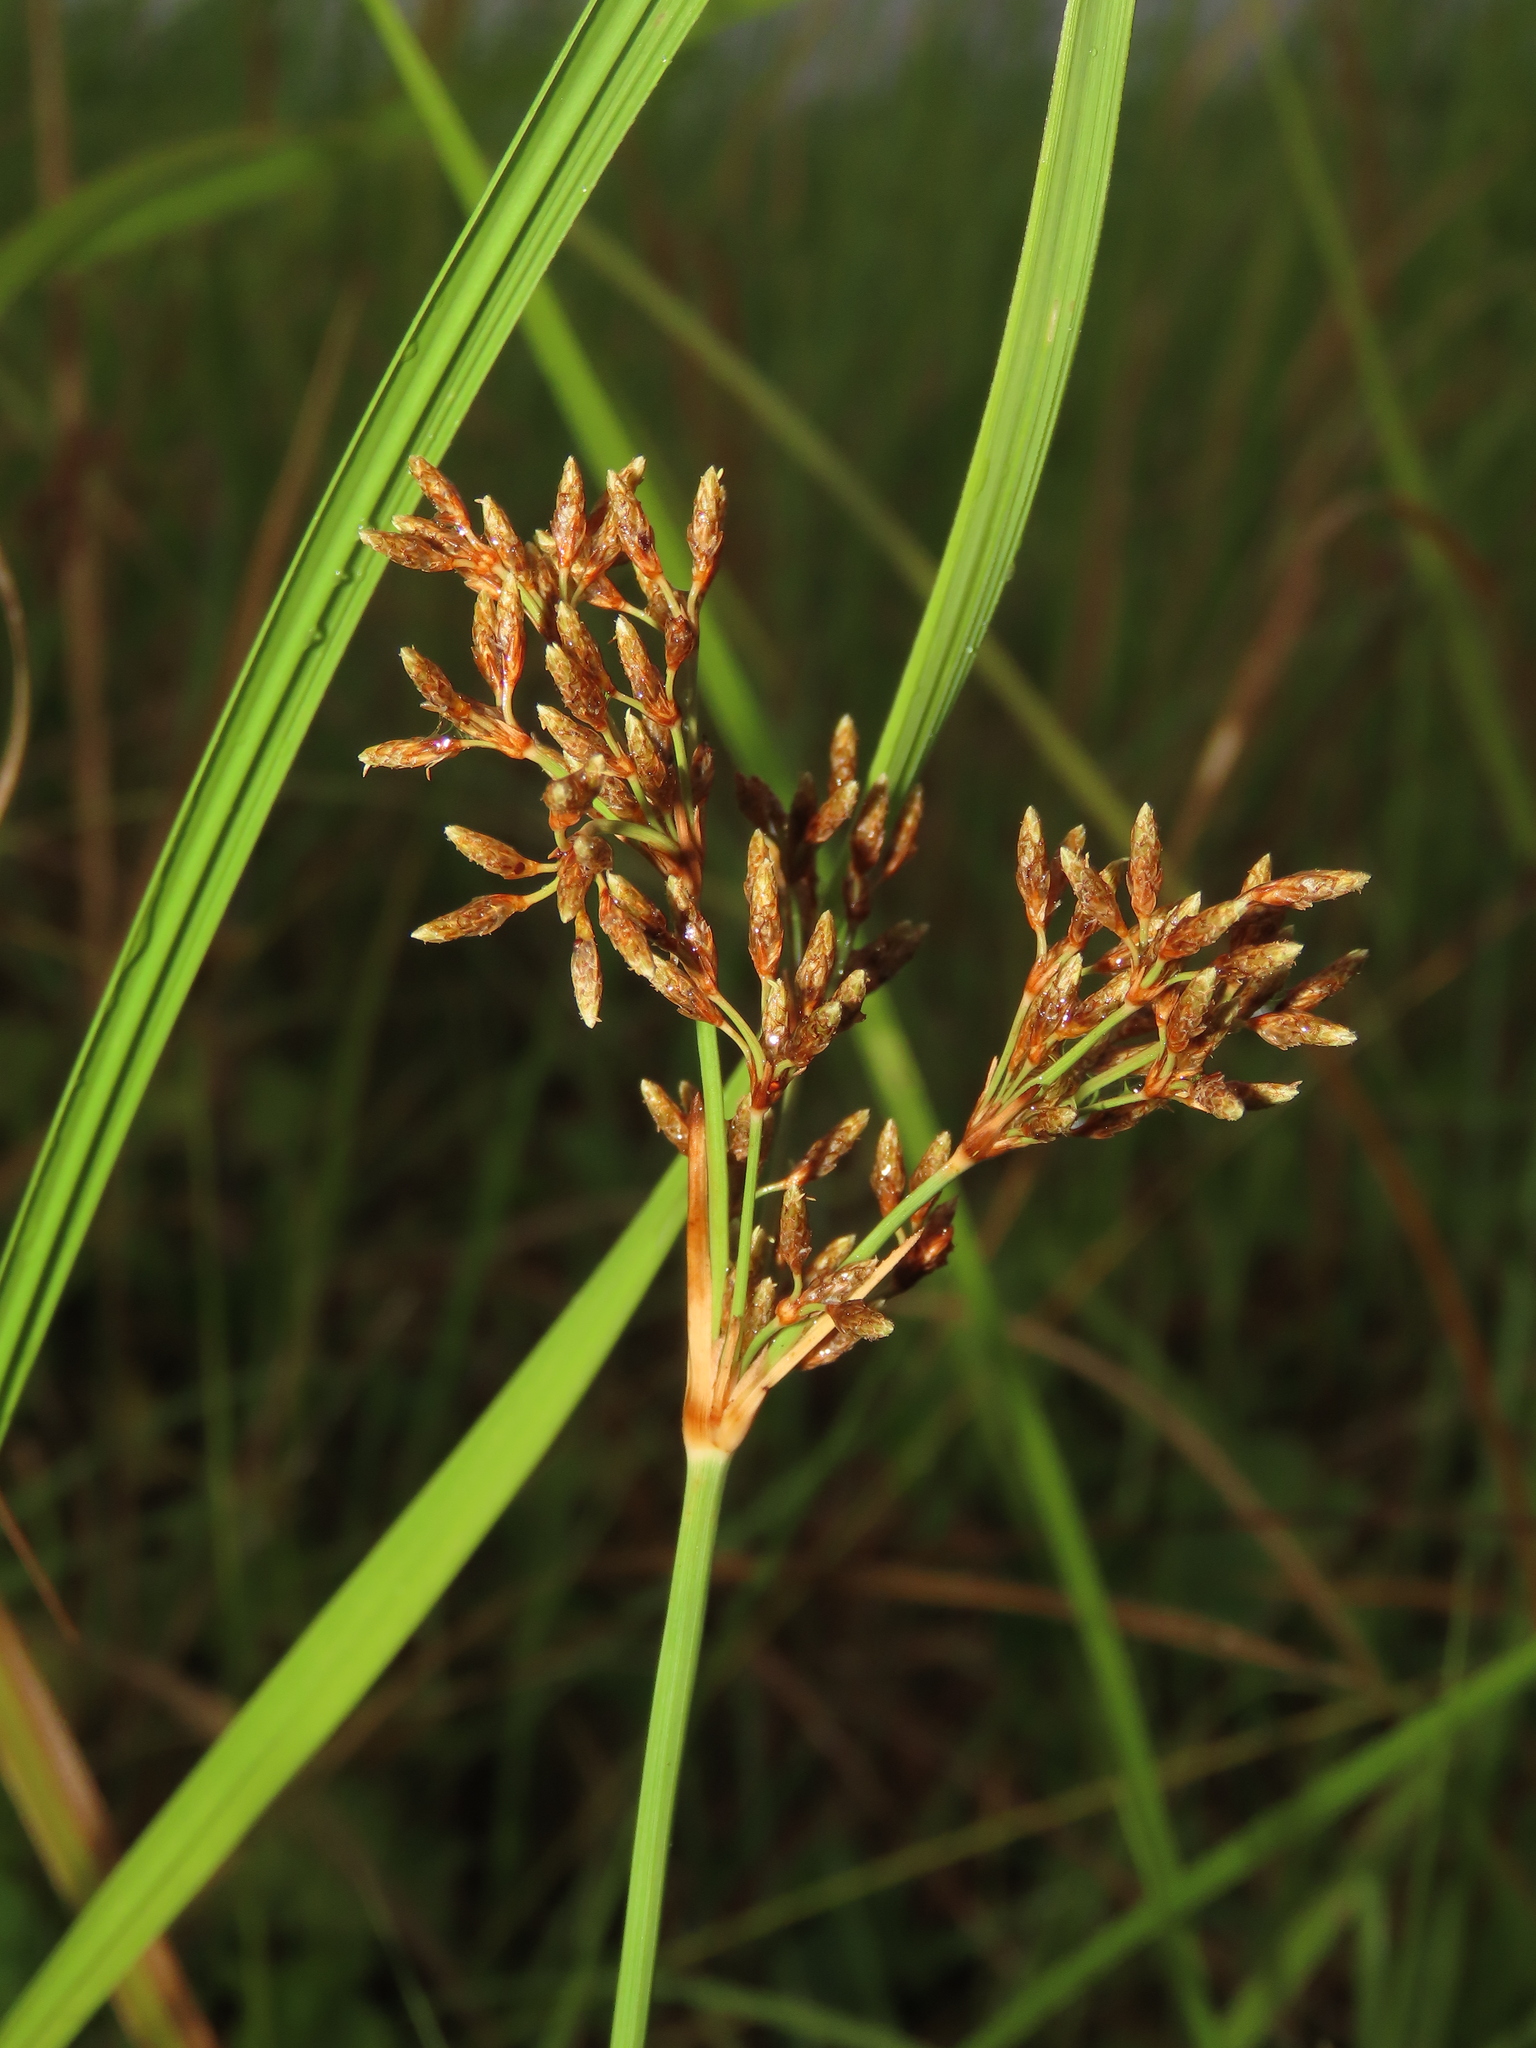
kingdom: Plantae
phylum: Tracheophyta
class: Liliopsida
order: Poales
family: Cyperaceae
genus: Fimbristylis
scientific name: Fimbristylis cymosa
